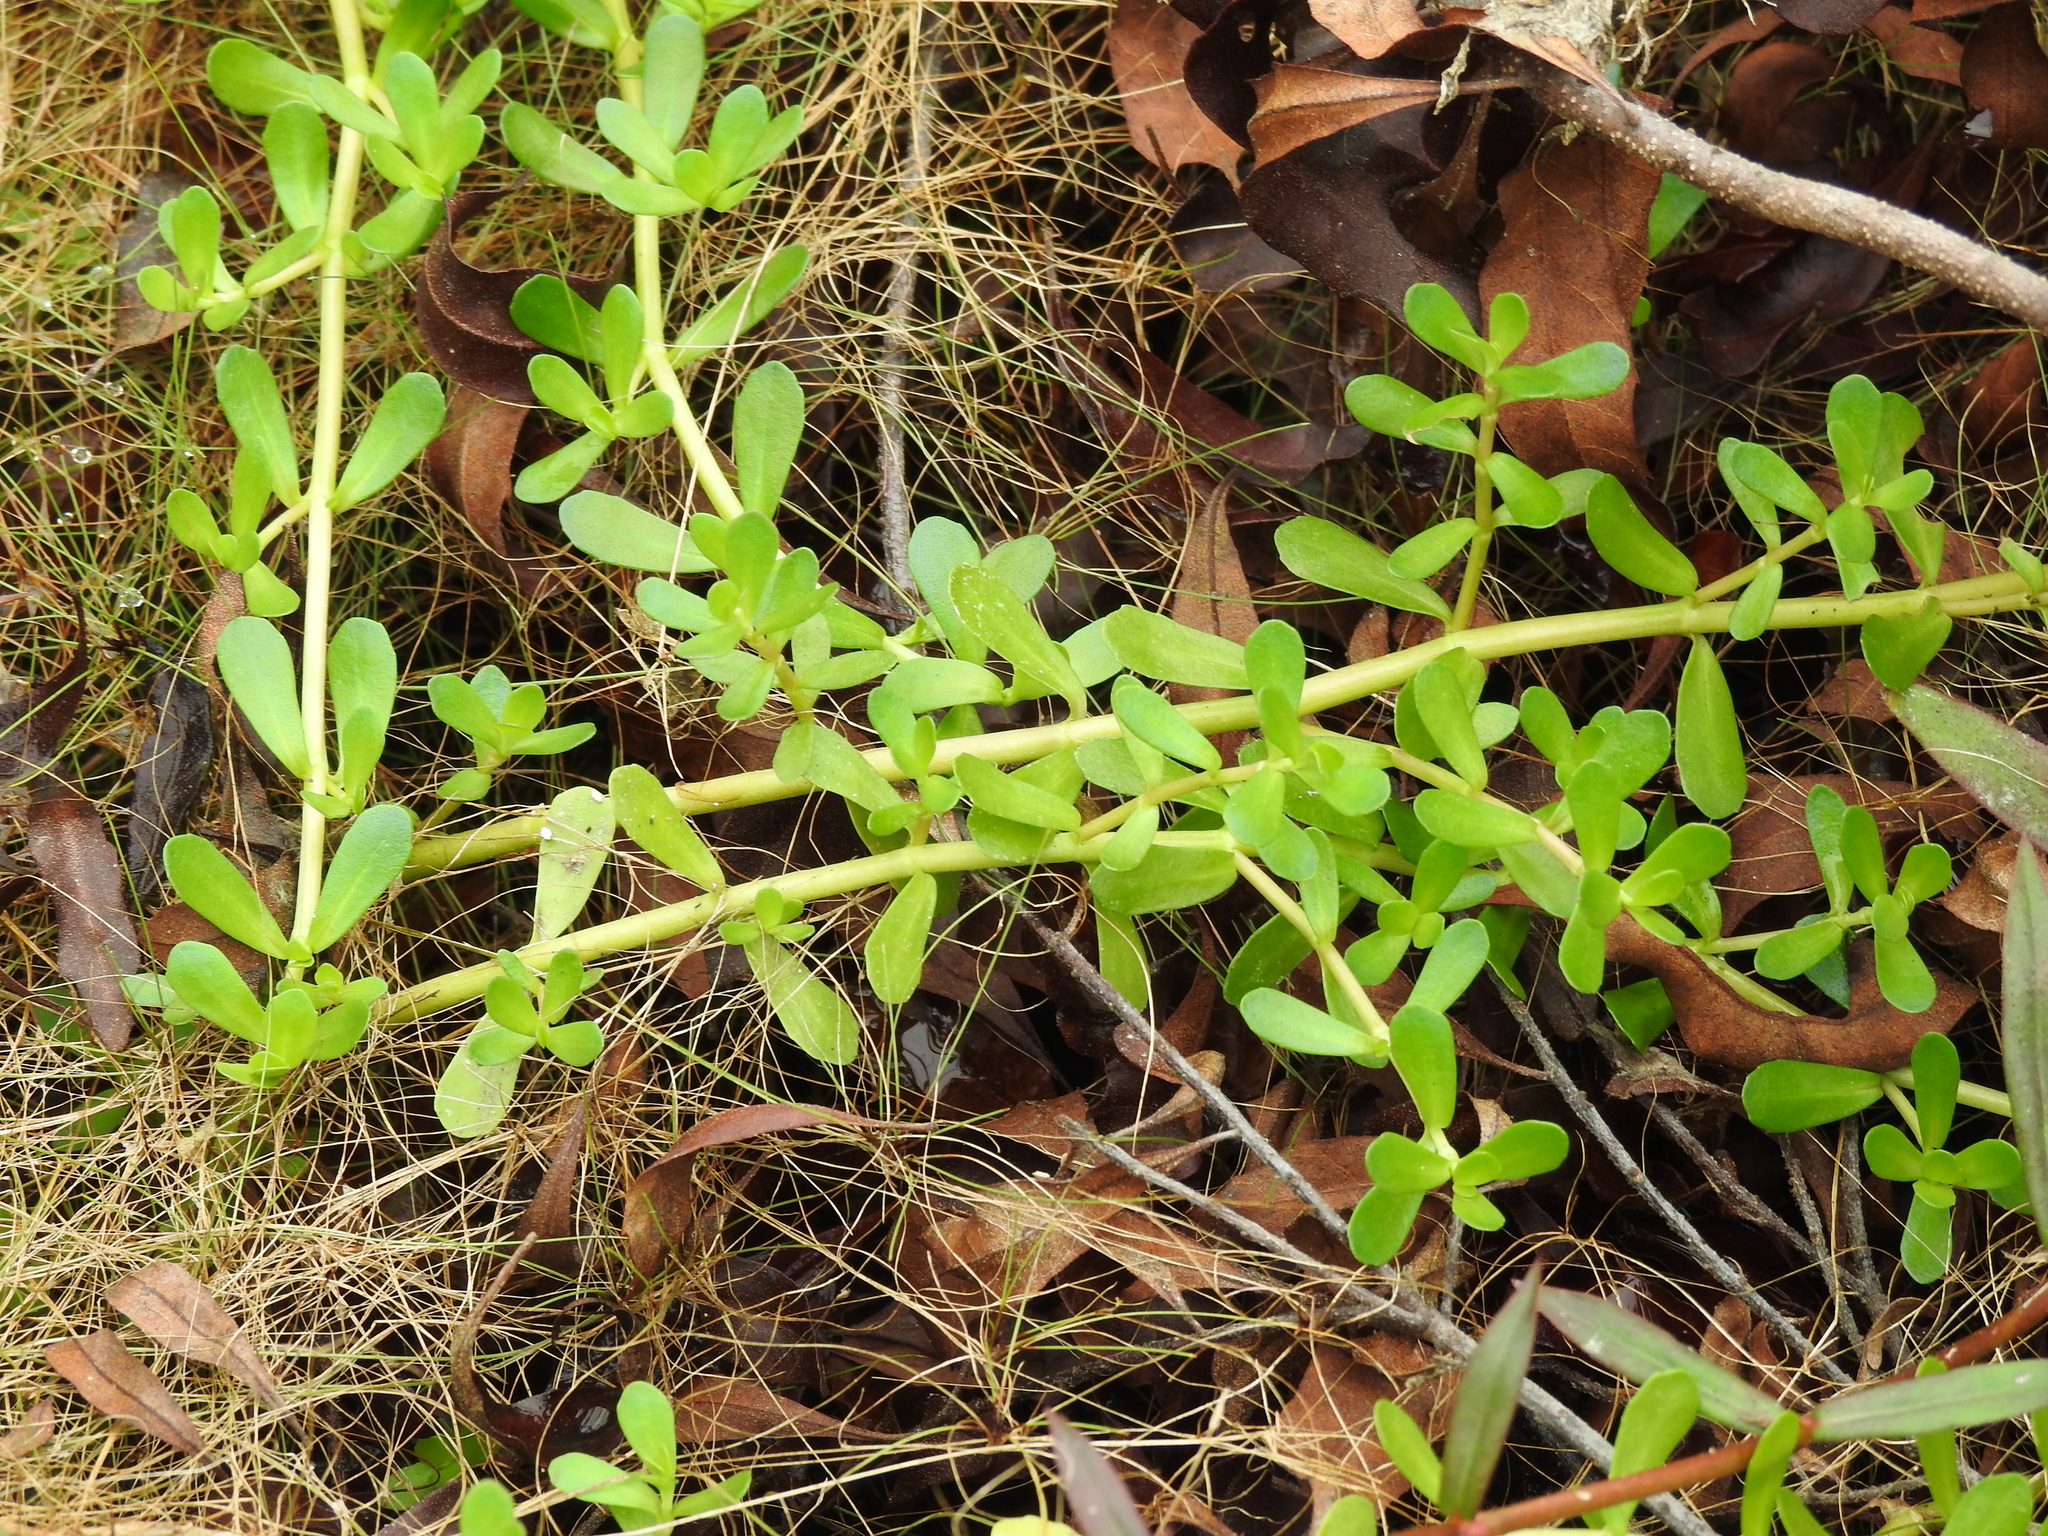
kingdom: Plantae
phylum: Tracheophyta
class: Magnoliopsida
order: Lamiales
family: Plantaginaceae
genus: Bacopa
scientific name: Bacopa monnieri
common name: Indian-pennywort
